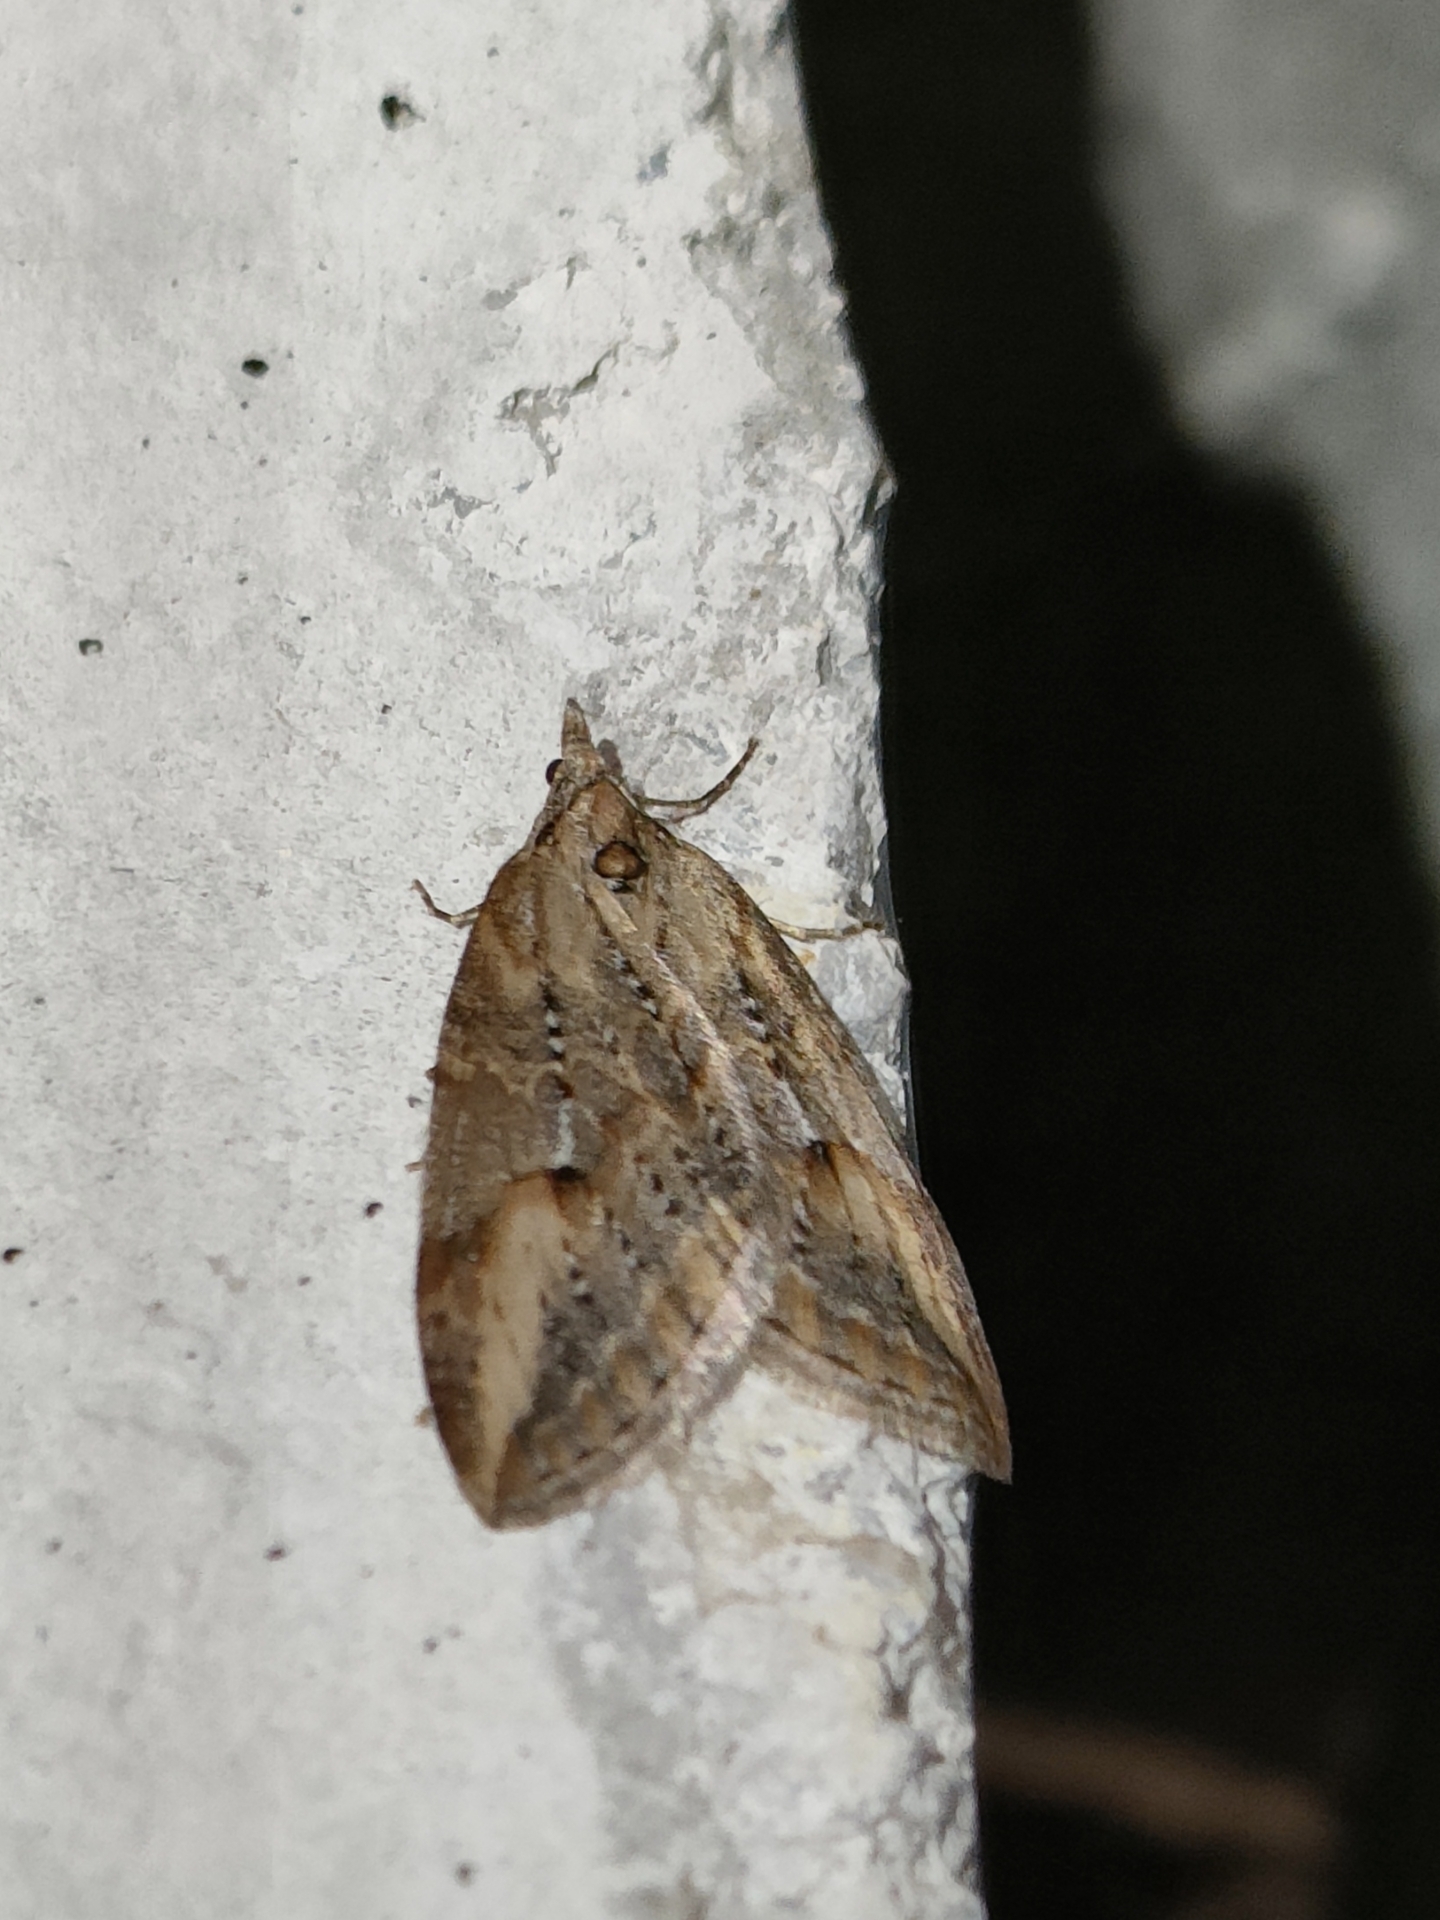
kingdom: Animalia
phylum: Arthropoda
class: Insecta
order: Lepidoptera
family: Geometridae
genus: Chesias
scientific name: Chesias isabella
